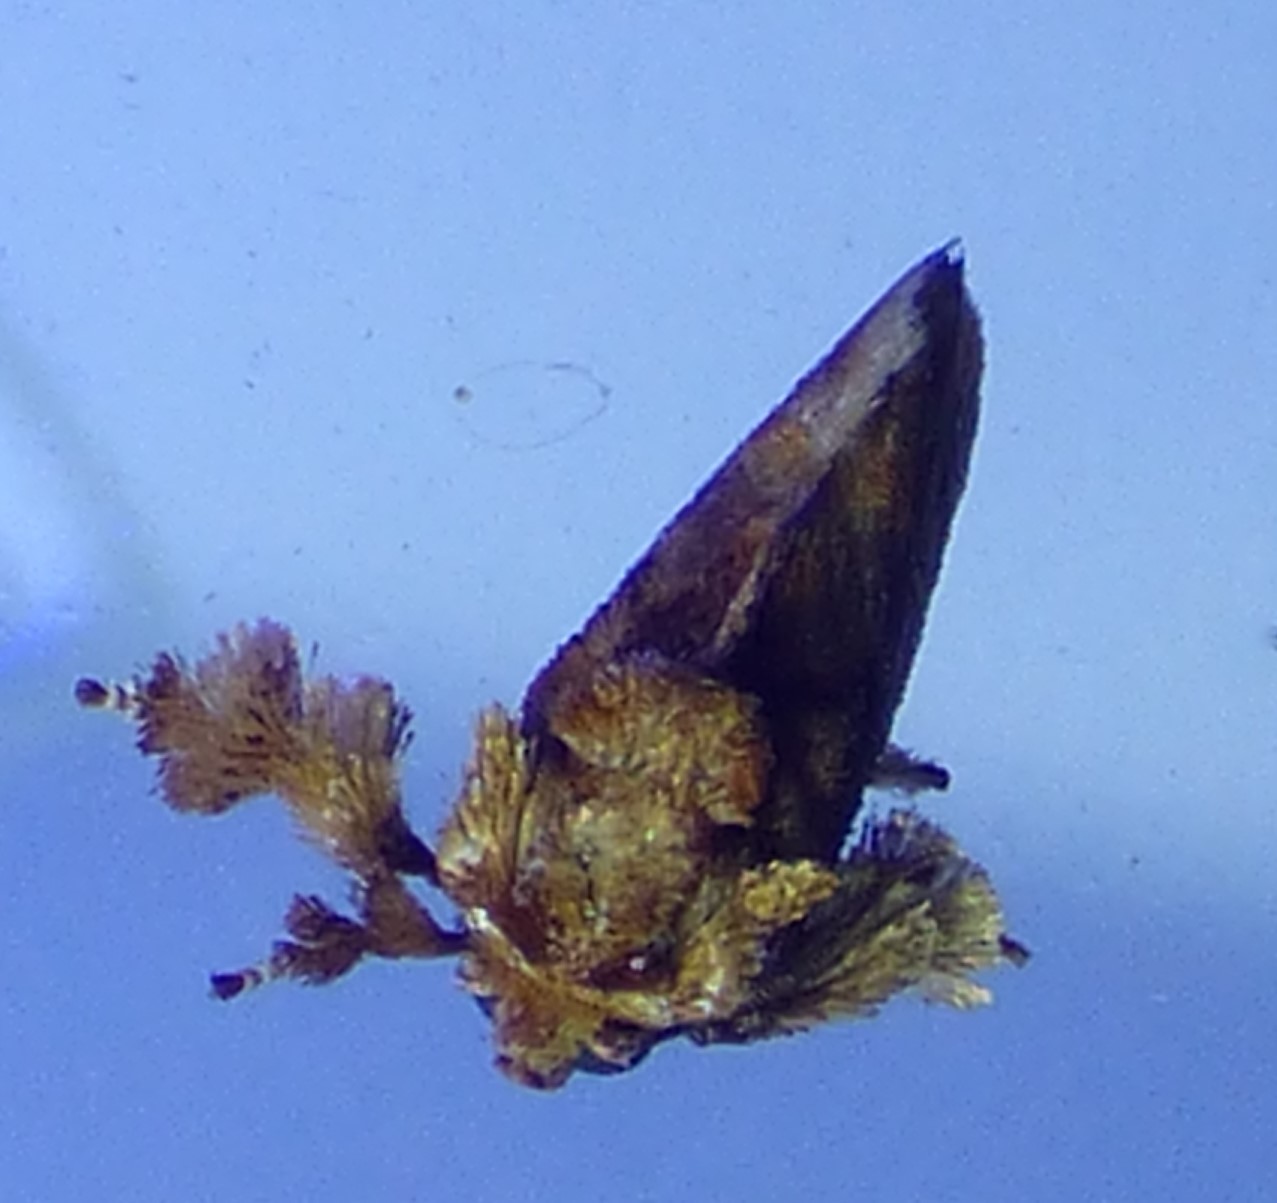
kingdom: Animalia
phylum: Arthropoda
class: Insecta
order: Lepidoptera
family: Limacodidae
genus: Isochaetes
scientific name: Isochaetes beutenmuelleri
